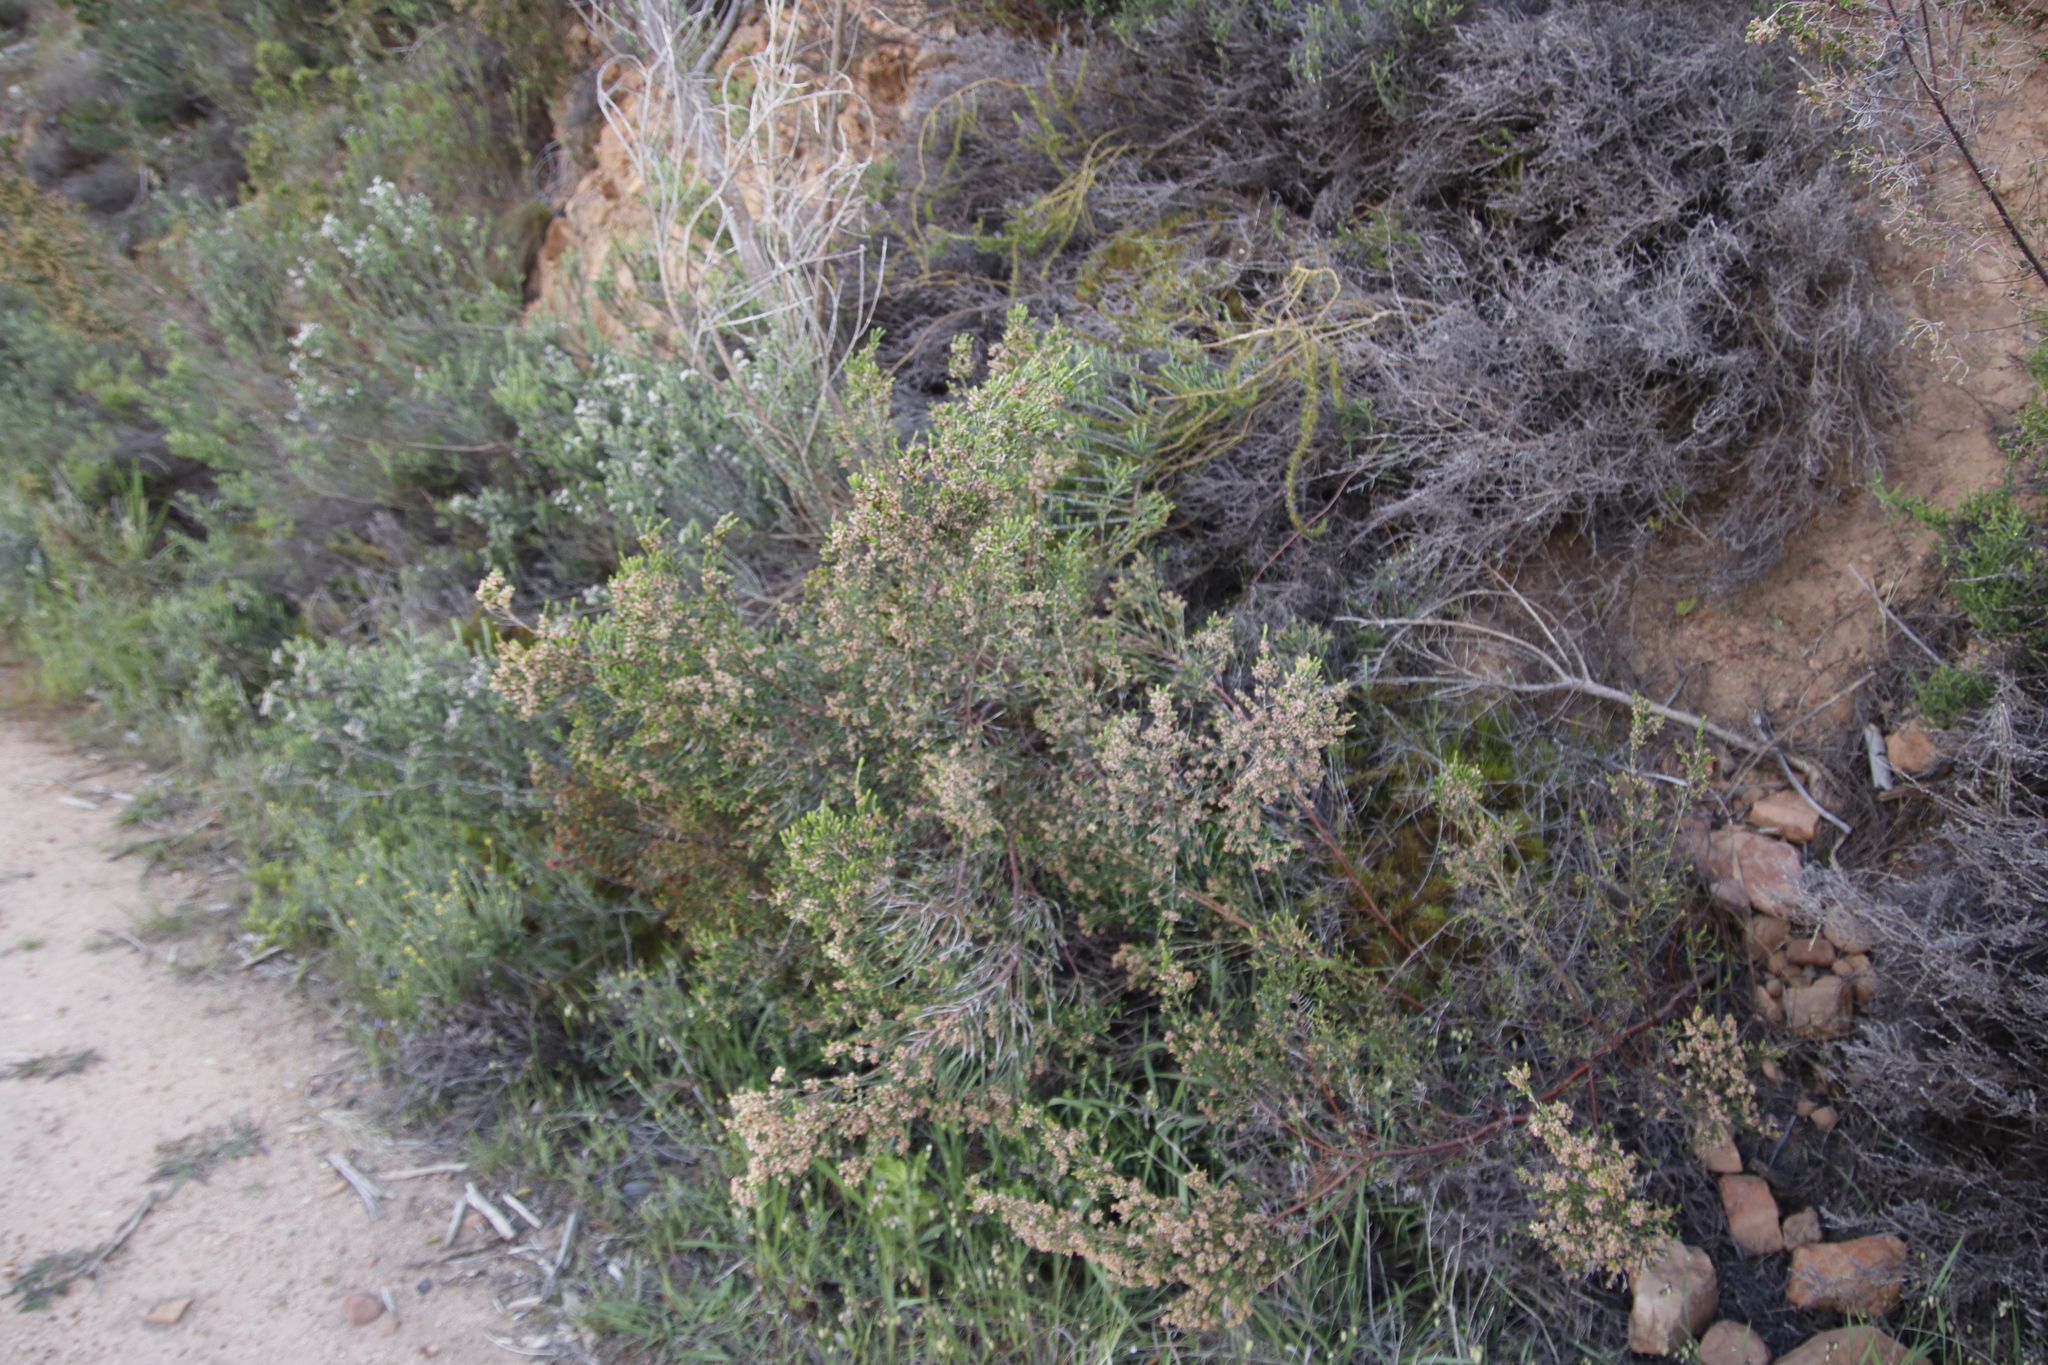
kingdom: Plantae
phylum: Tracheophyta
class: Magnoliopsida
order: Malvales
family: Thymelaeaceae
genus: Passerina
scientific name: Passerina corymbosa
